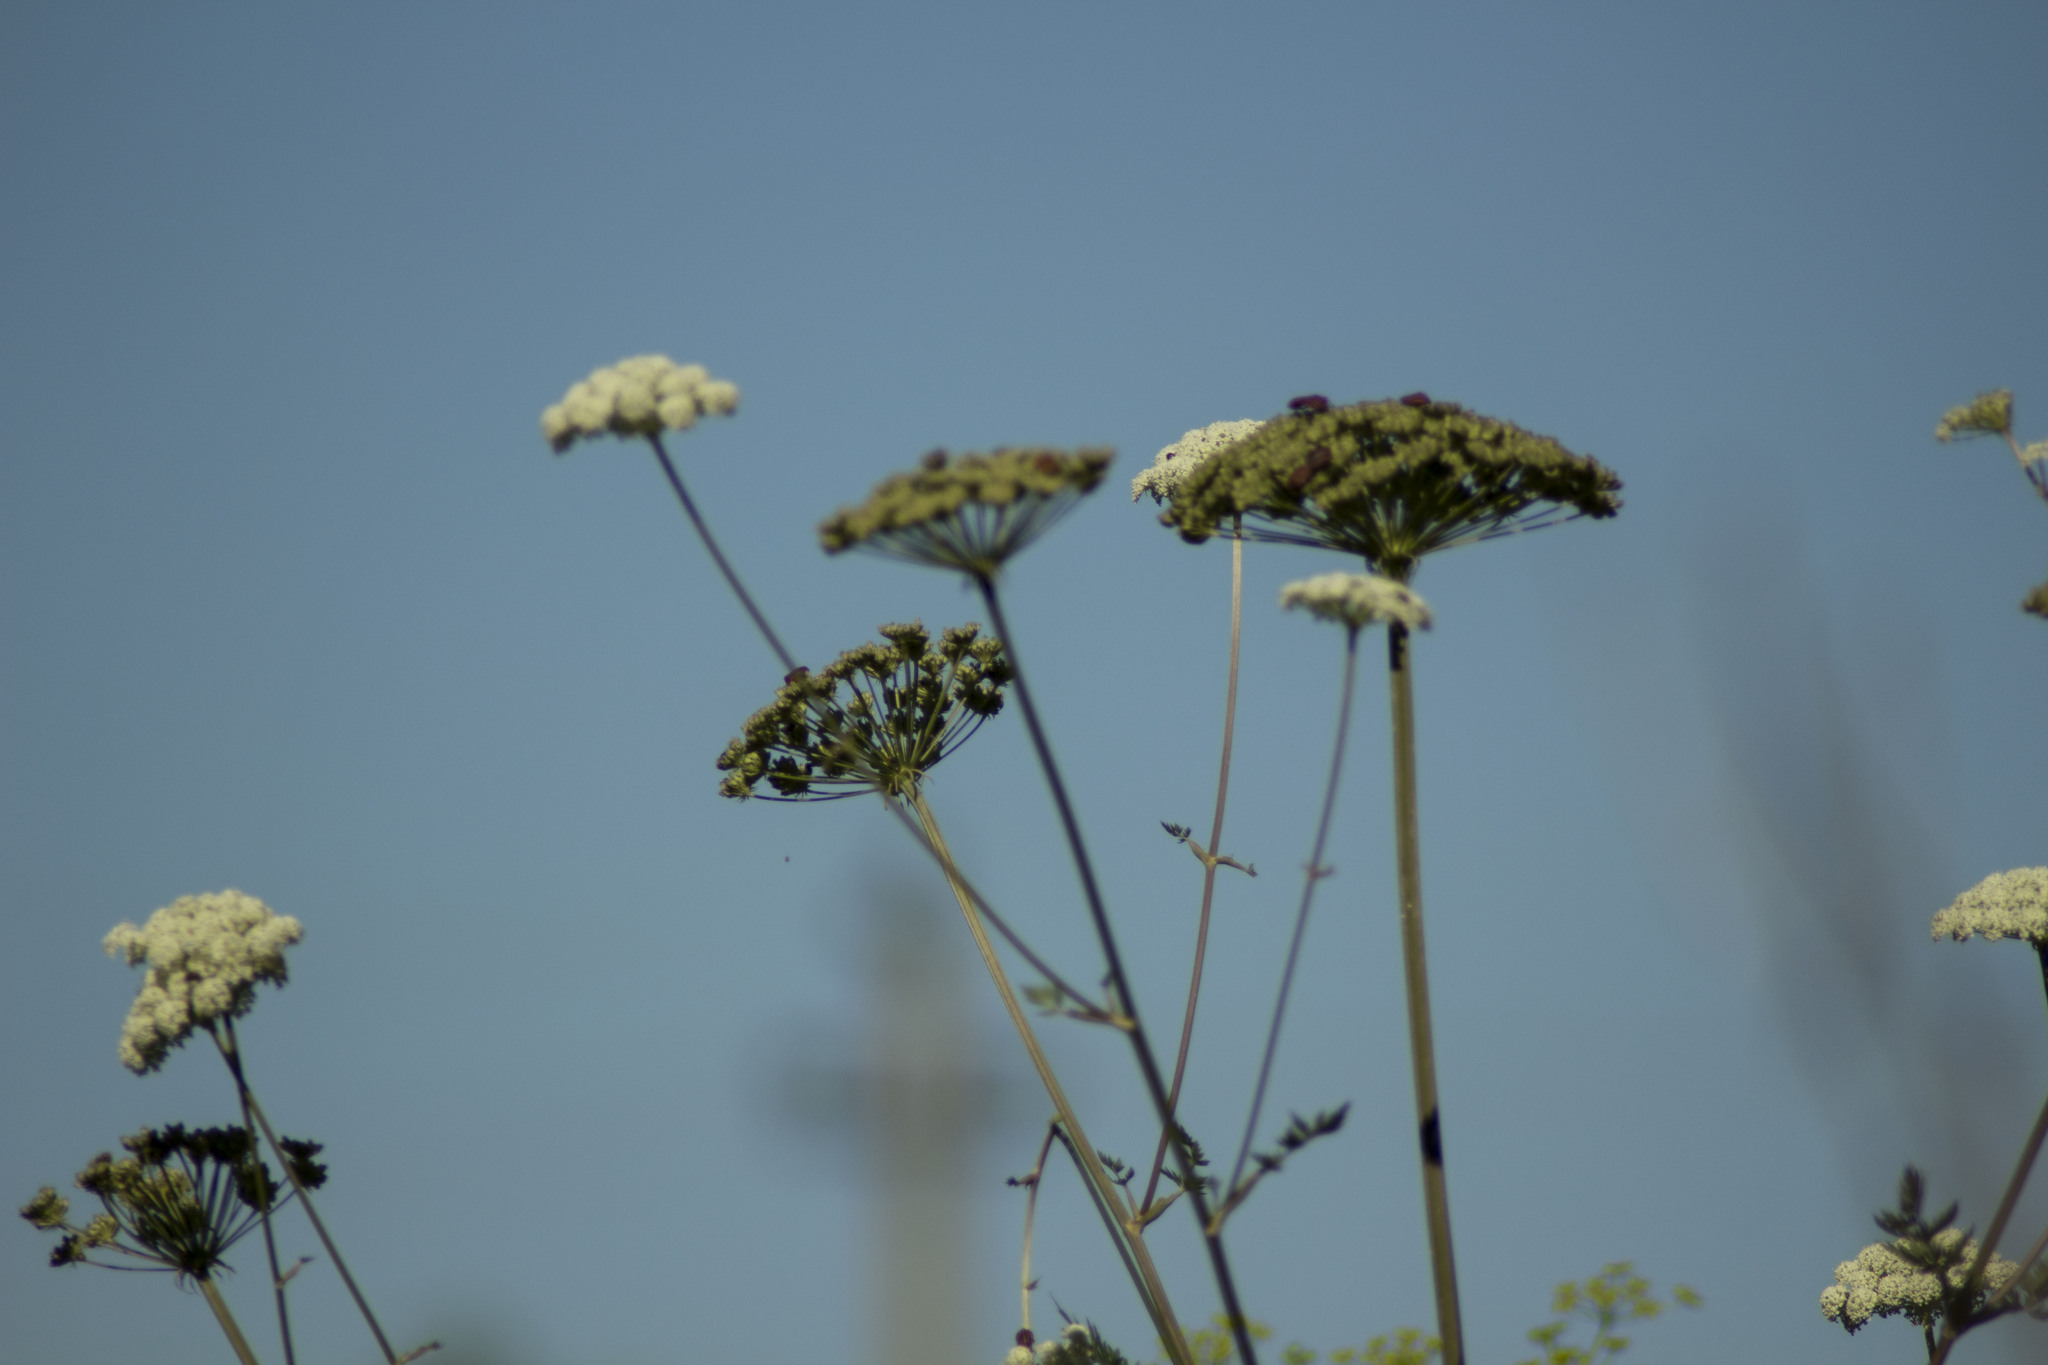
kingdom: Plantae
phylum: Tracheophyta
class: Magnoliopsida
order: Apiales
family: Apiaceae
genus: Angelica
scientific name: Angelica sylvestris
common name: Wild angelica
